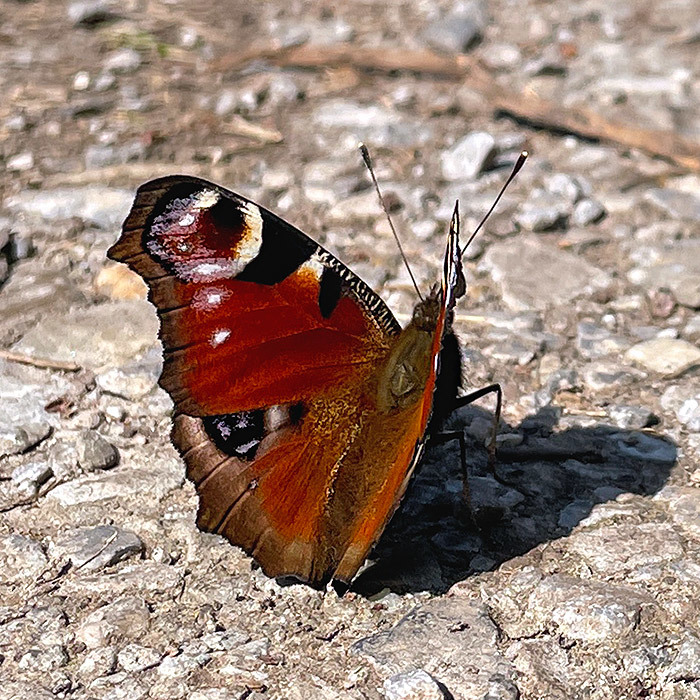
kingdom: Animalia
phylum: Arthropoda
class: Insecta
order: Lepidoptera
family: Nymphalidae
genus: Aglais
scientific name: Aglais io
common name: Peacock
